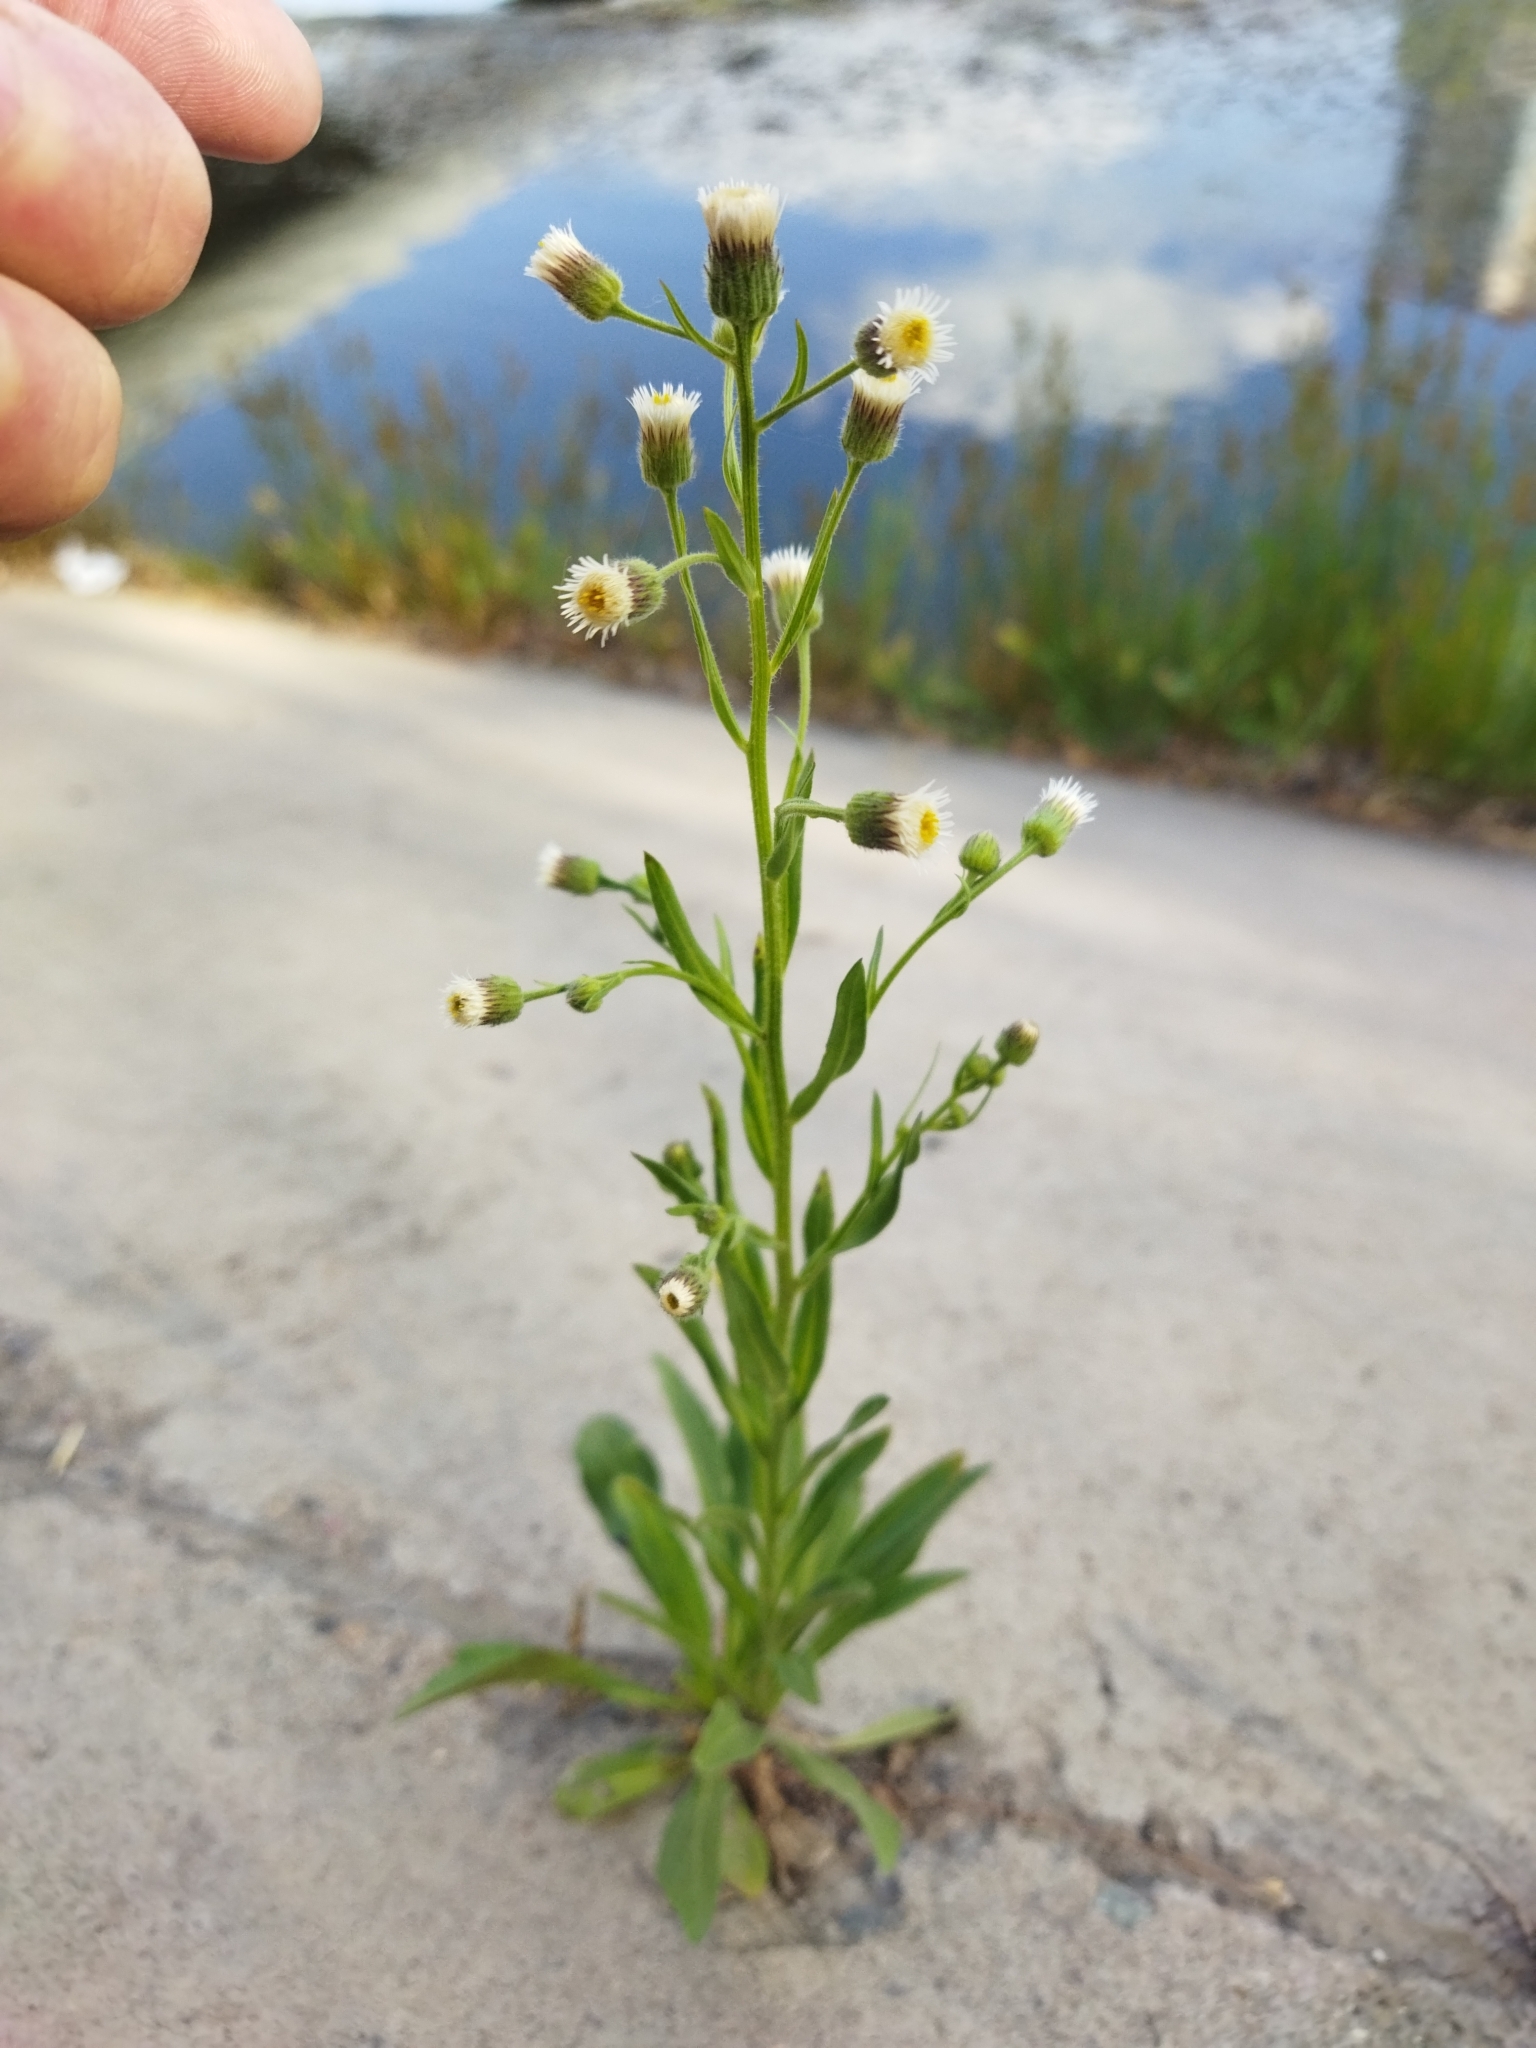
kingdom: Plantae
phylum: Tracheophyta
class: Magnoliopsida
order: Asterales
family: Asteraceae
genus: Erigeron
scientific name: Erigeron canadensis
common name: Canadian fleabane
